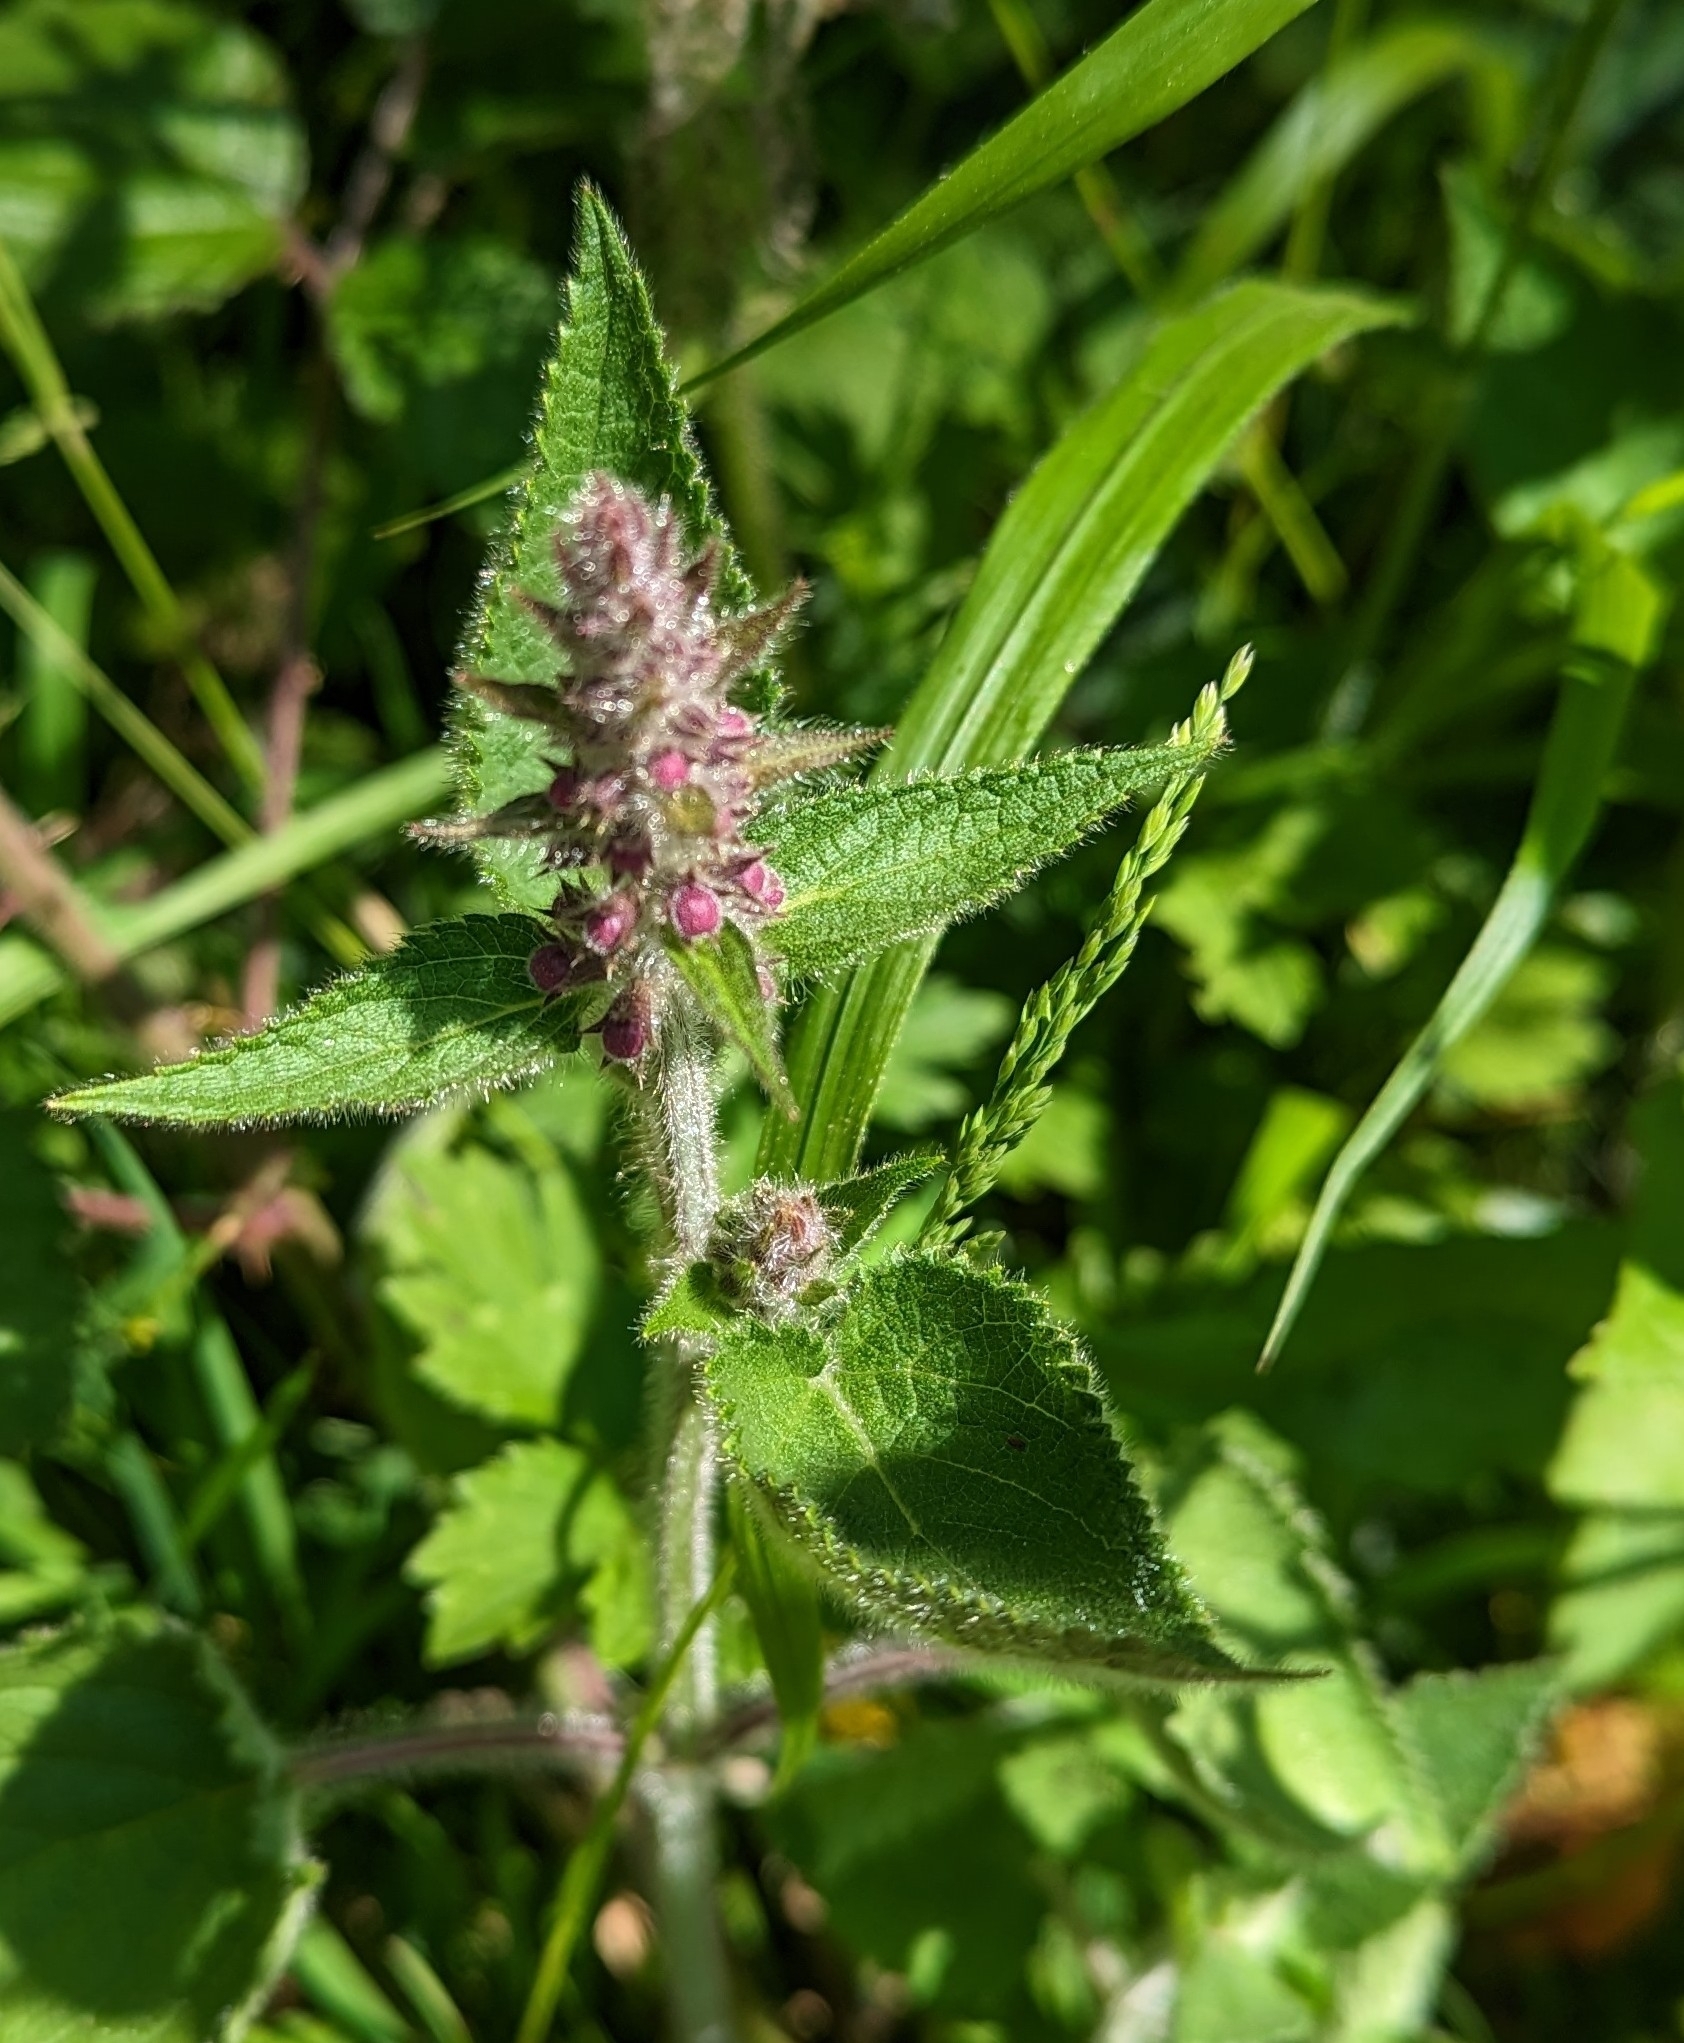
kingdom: Plantae
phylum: Tracheophyta
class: Magnoliopsida
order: Lamiales
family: Lamiaceae
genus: Stachys
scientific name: Stachys sylvatica
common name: Hedge woundwort
